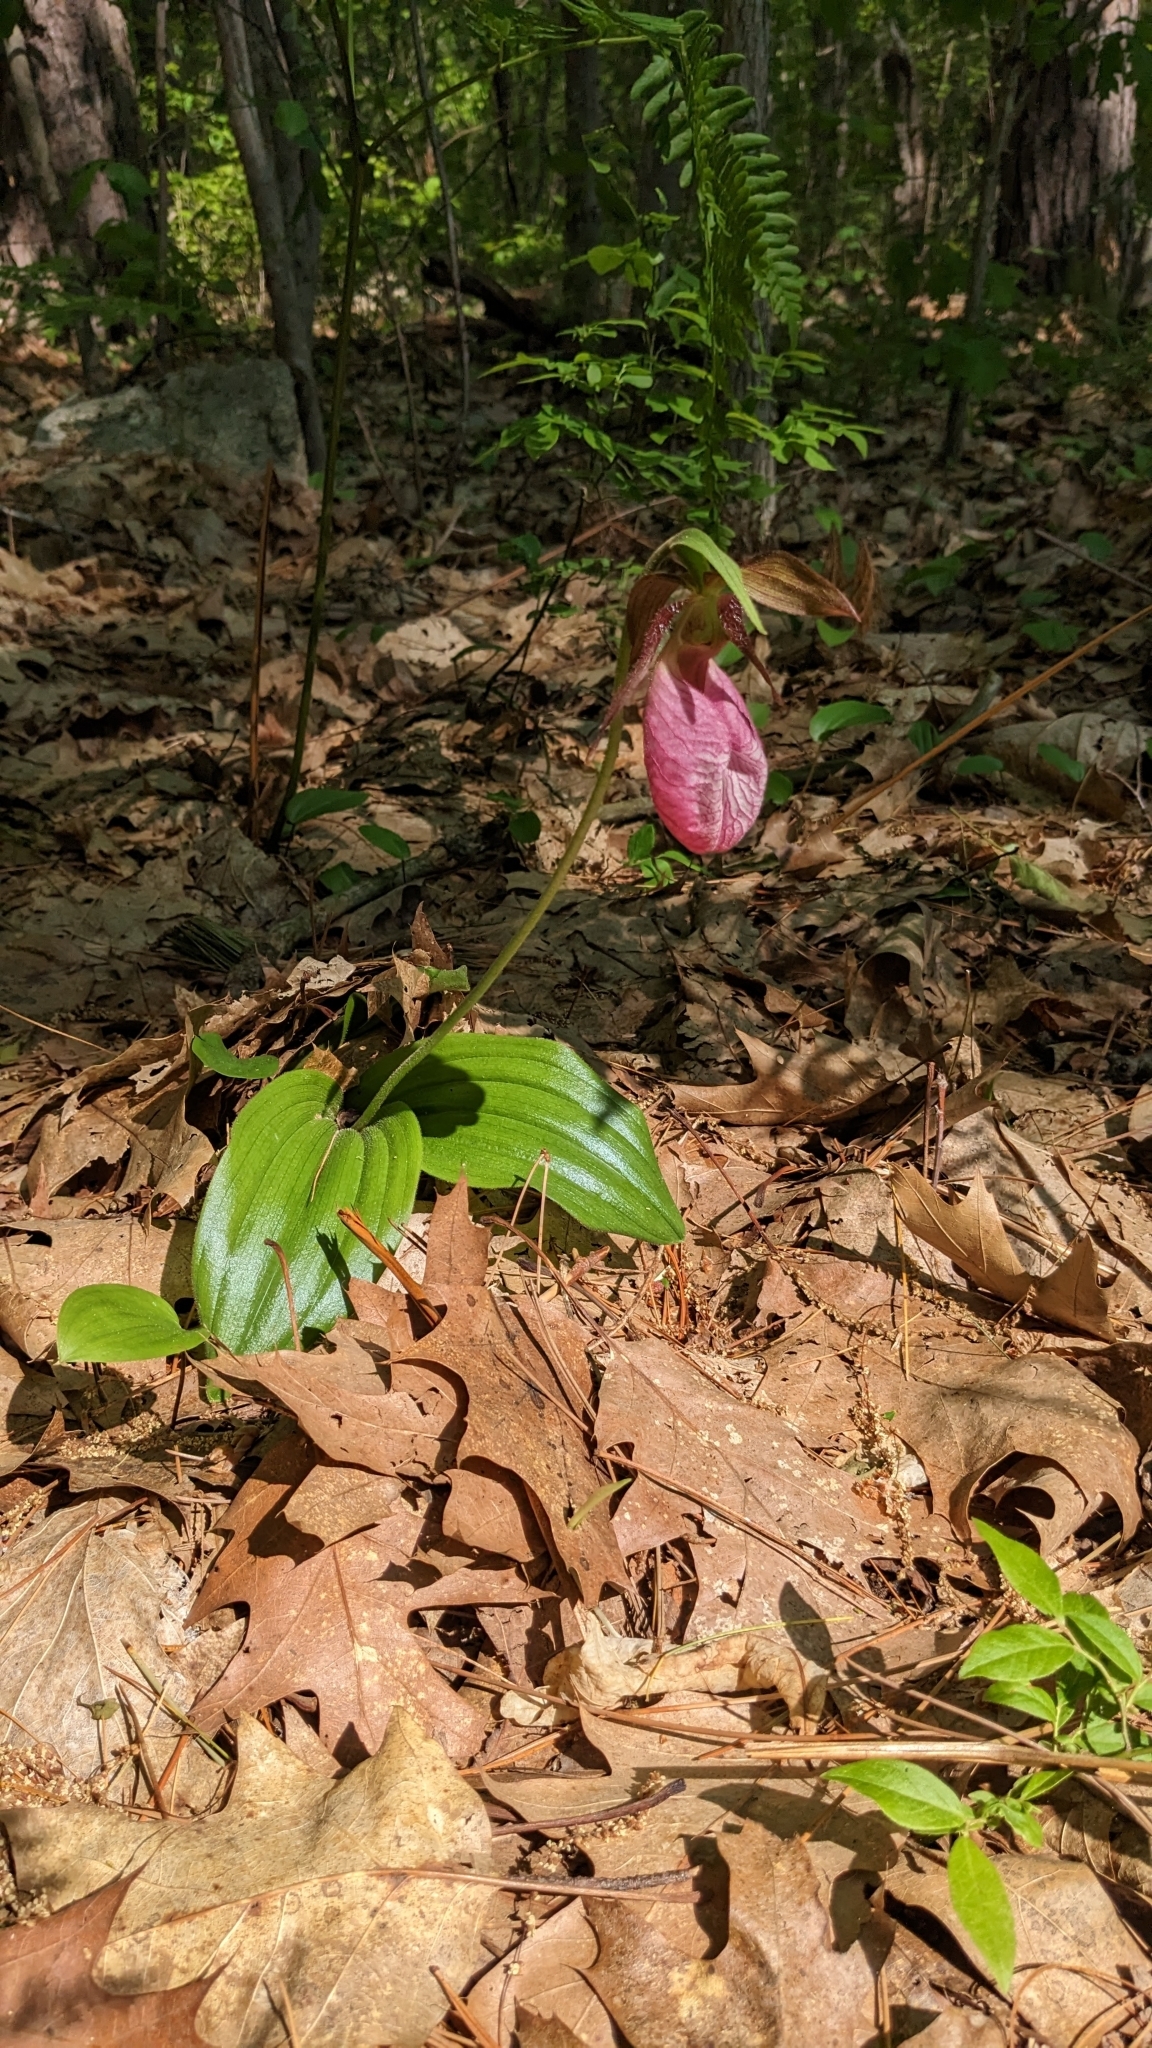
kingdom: Plantae
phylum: Tracheophyta
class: Liliopsida
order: Asparagales
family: Orchidaceae
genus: Cypripedium
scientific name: Cypripedium acaule
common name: Pink lady's-slipper
